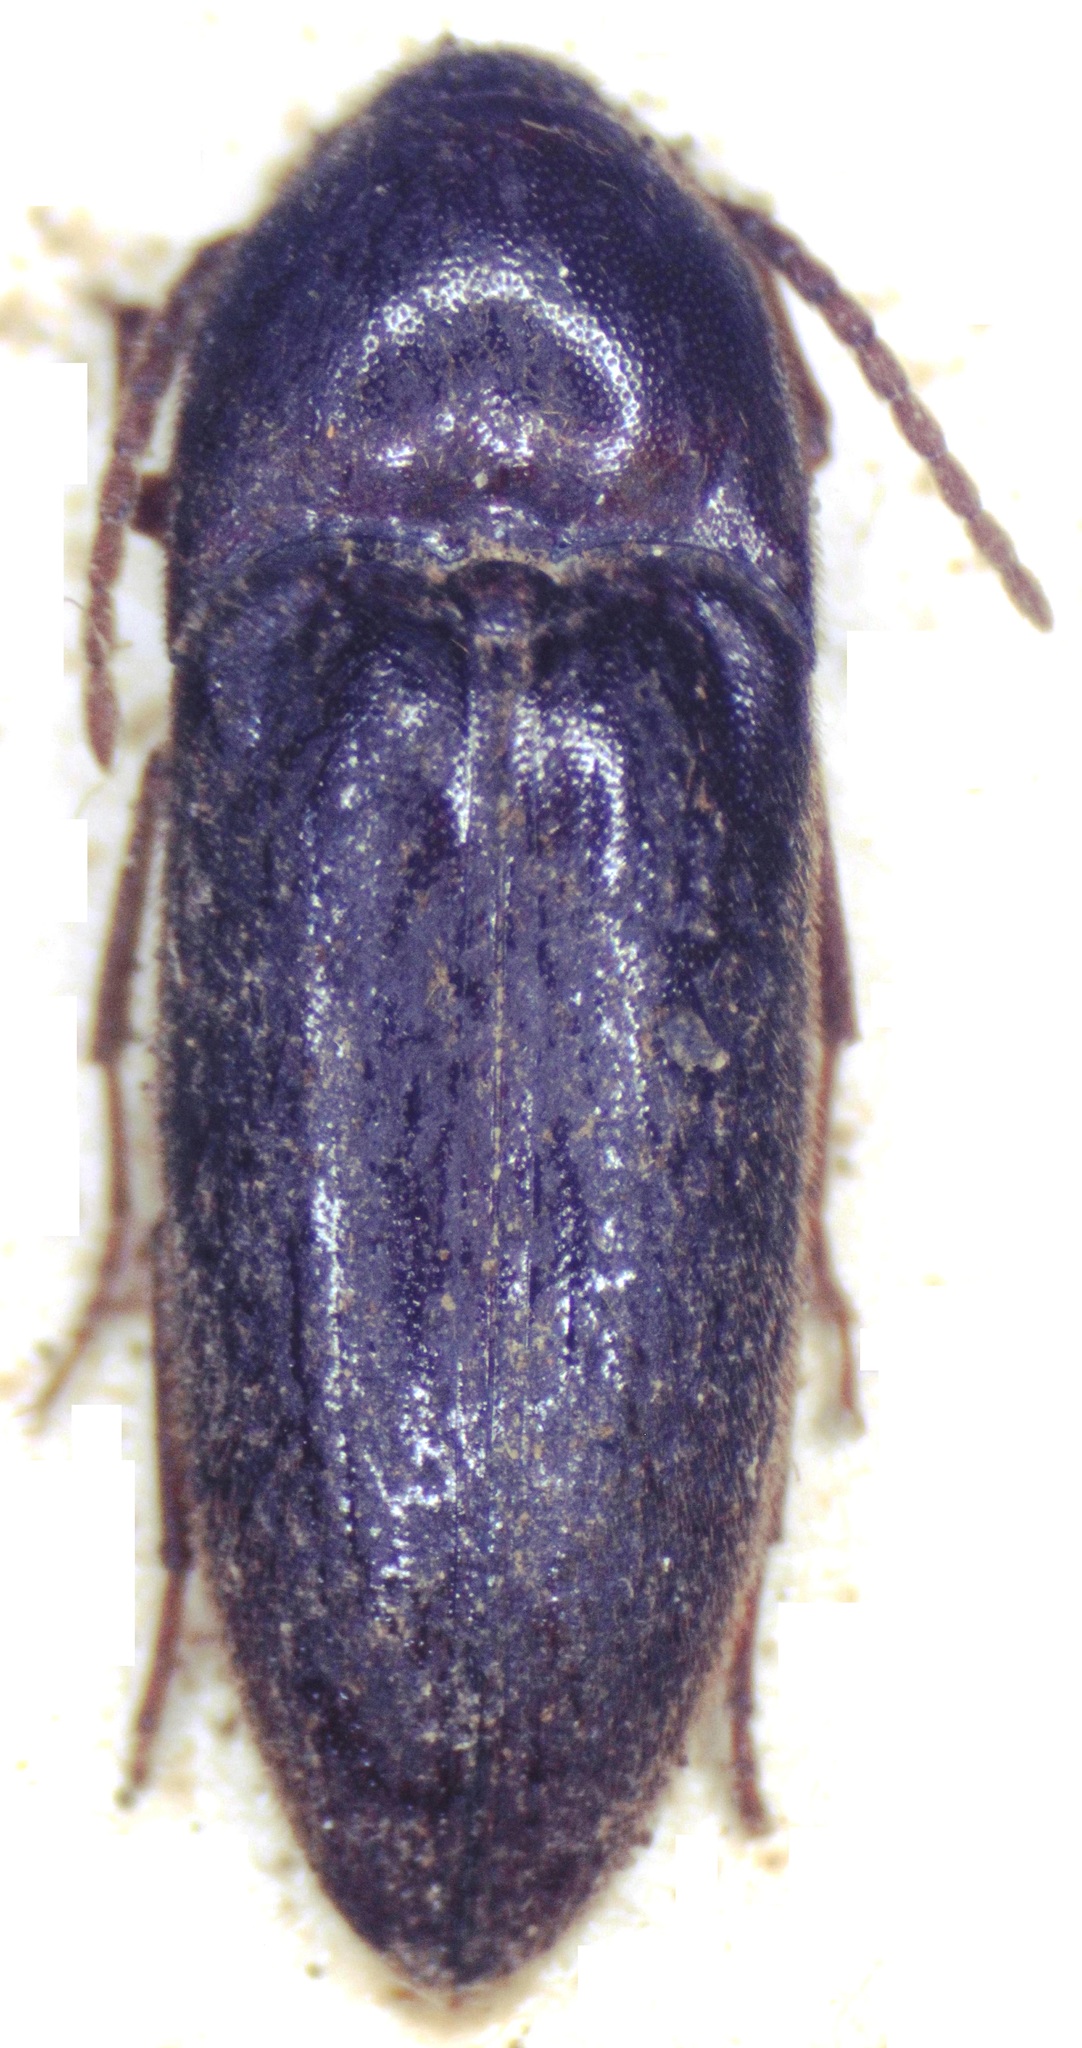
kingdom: Animalia
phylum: Arthropoda
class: Insecta
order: Coleoptera
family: Eucnemidae
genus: Plesiofornax
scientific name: Plesiofornax
